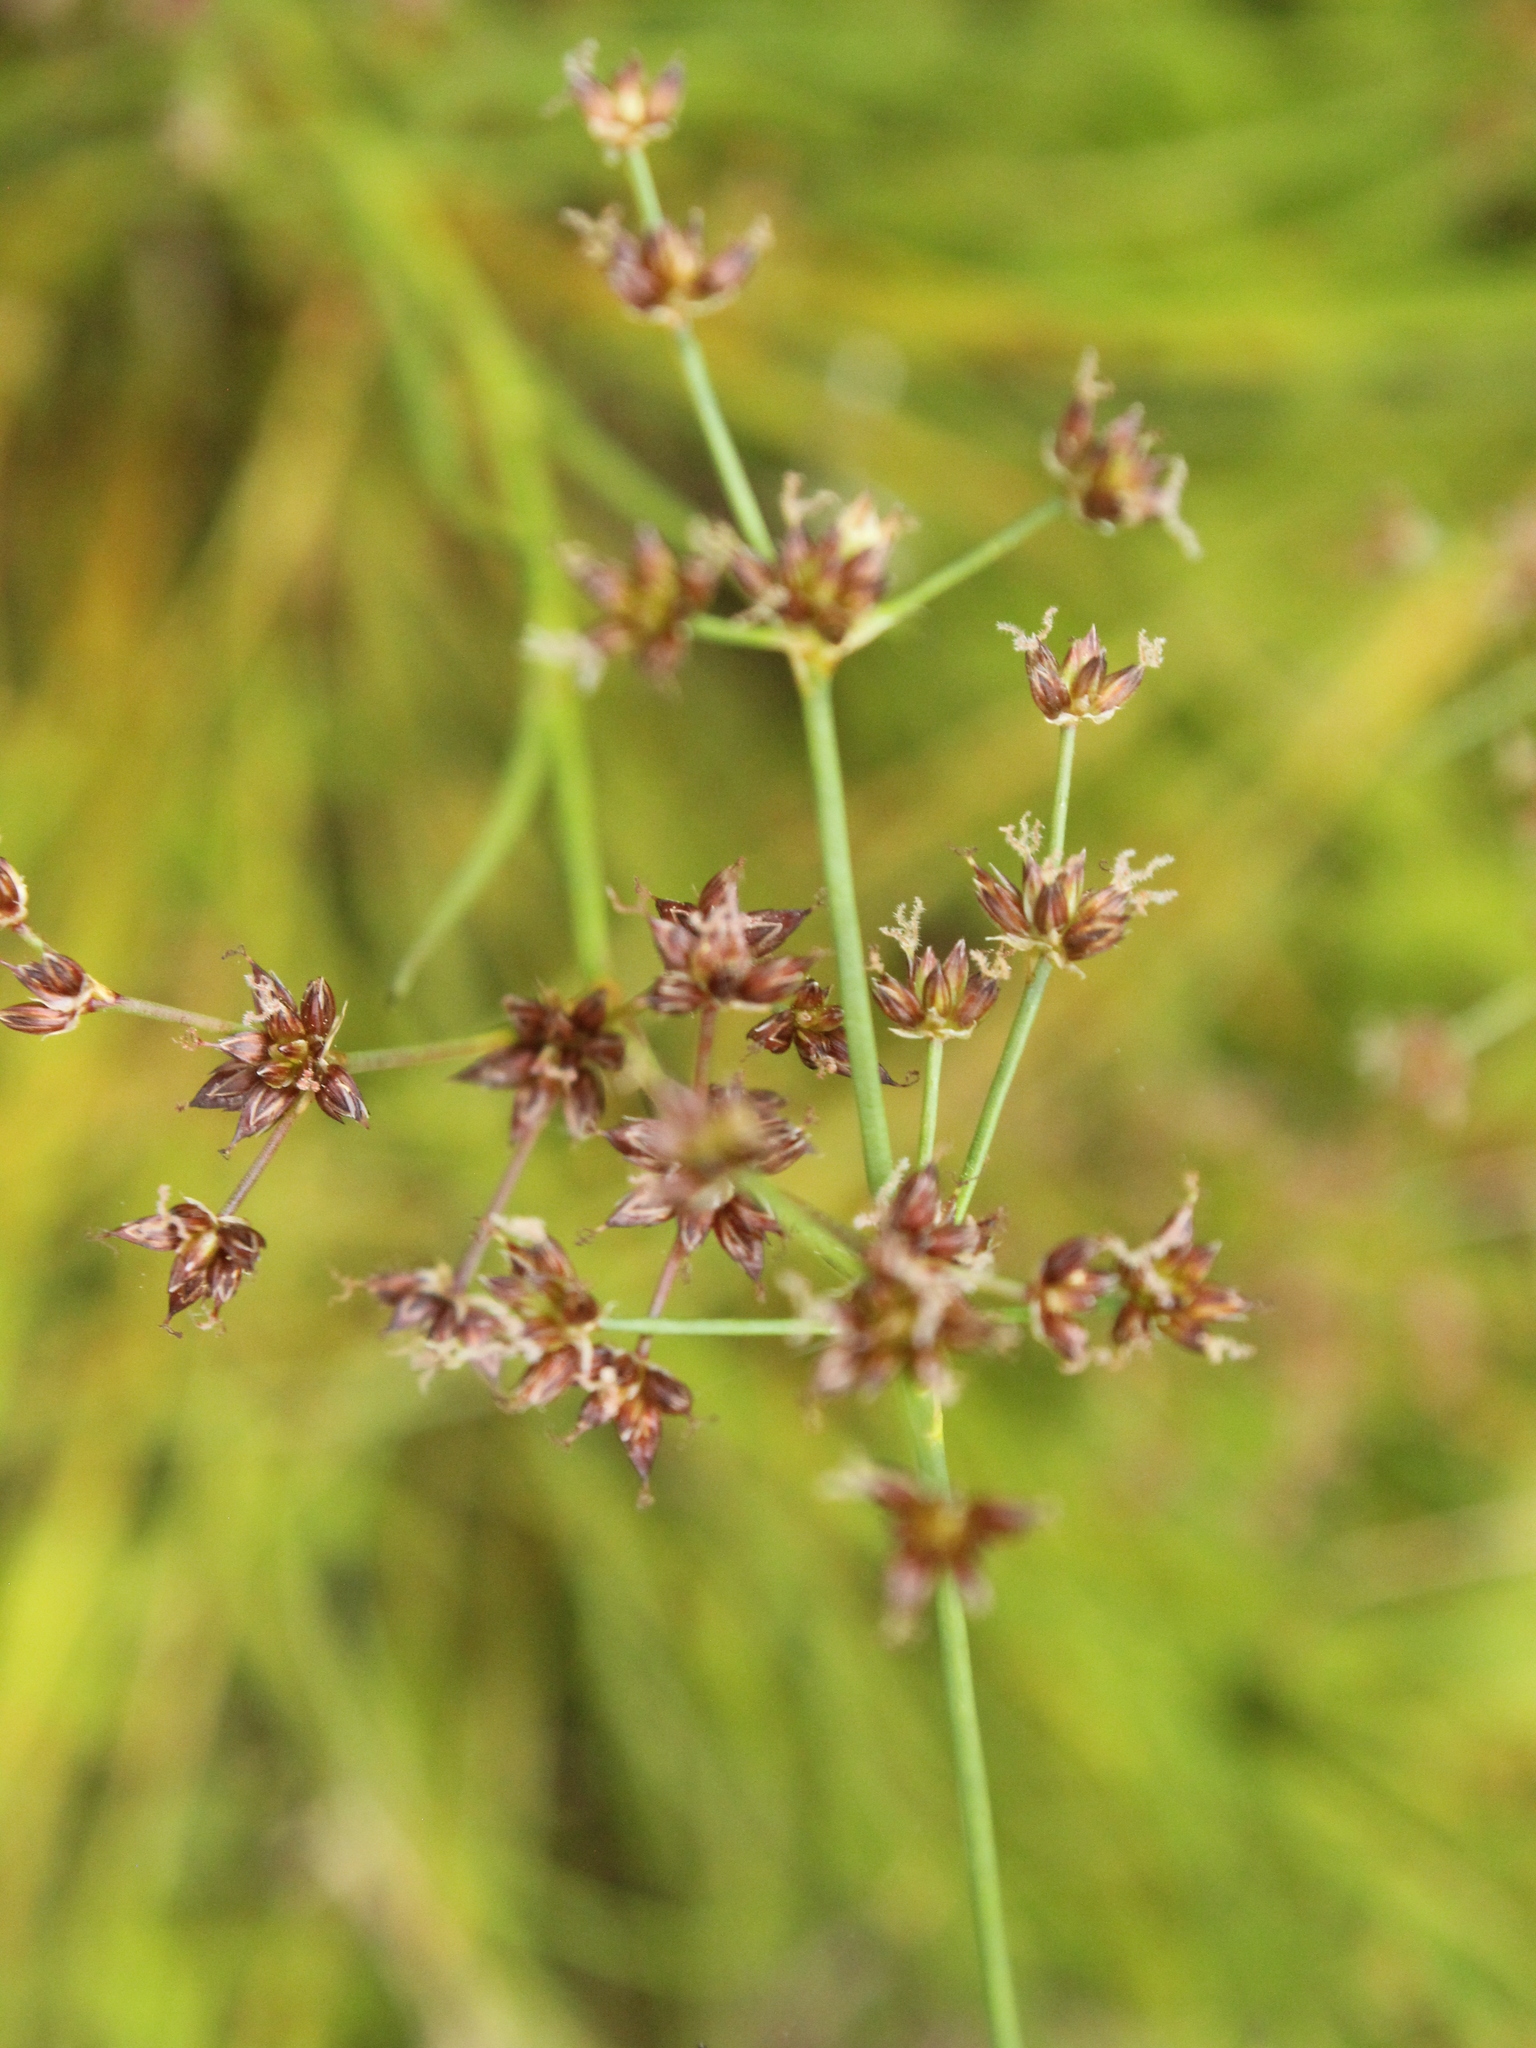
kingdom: Plantae
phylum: Tracheophyta
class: Liliopsida
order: Poales
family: Juncaceae
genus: Juncus
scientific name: Juncus articulatus
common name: Jointed rush
